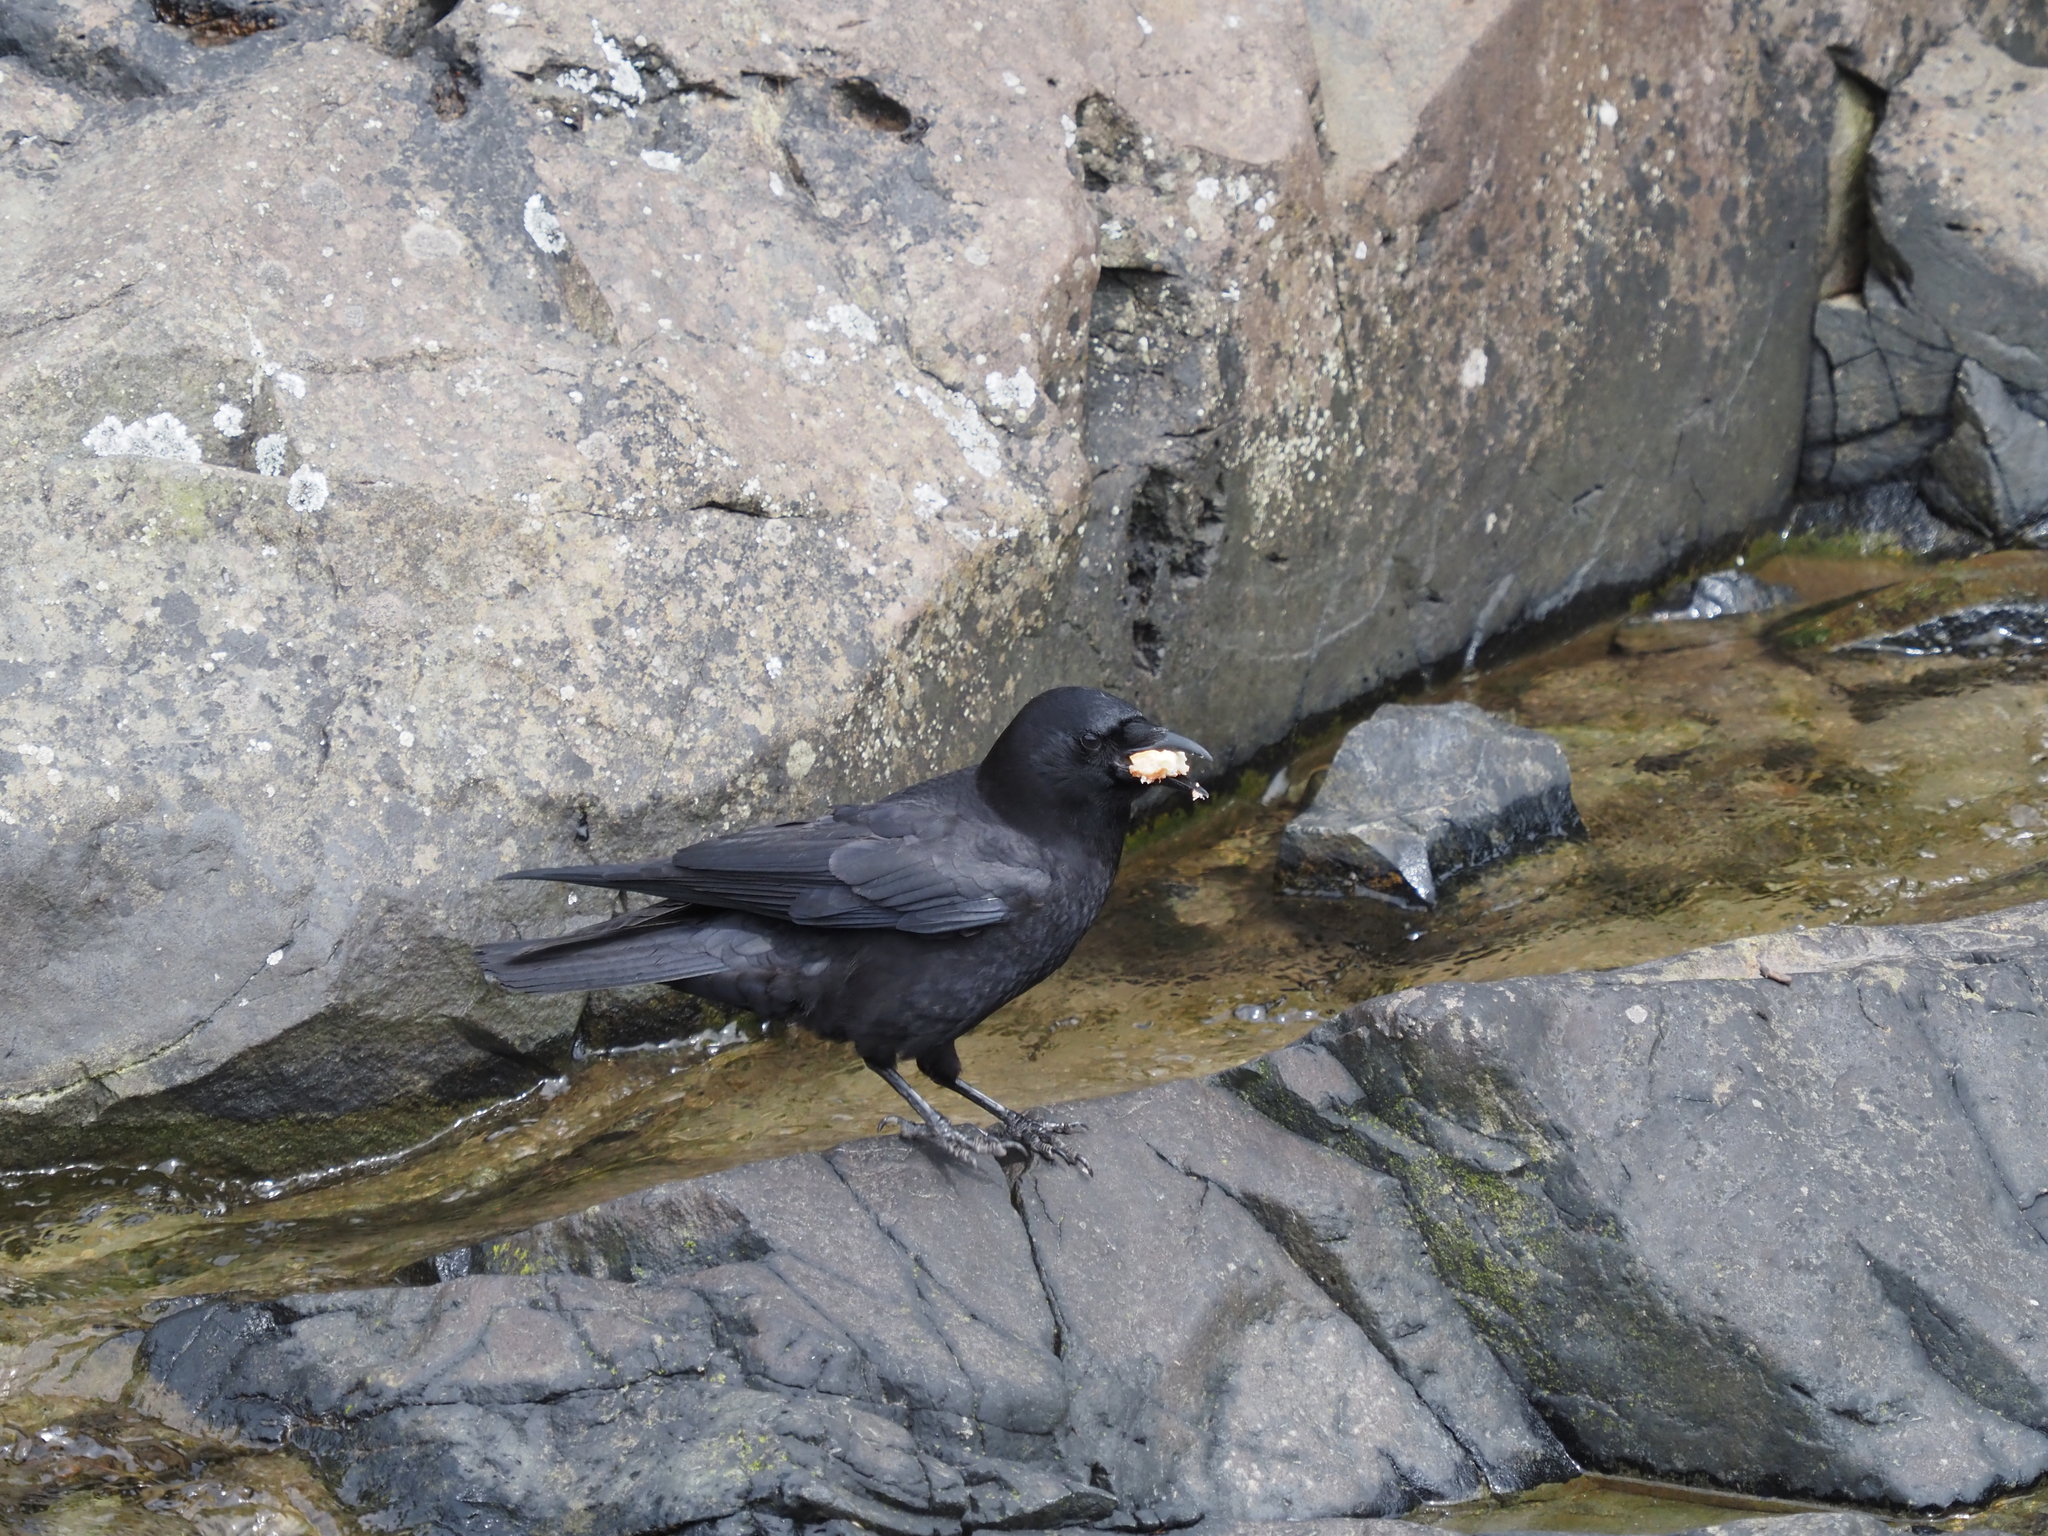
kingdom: Animalia
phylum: Chordata
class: Aves
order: Passeriformes
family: Corvidae
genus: Corvus
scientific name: Corvus brachyrhynchos
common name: American crow
